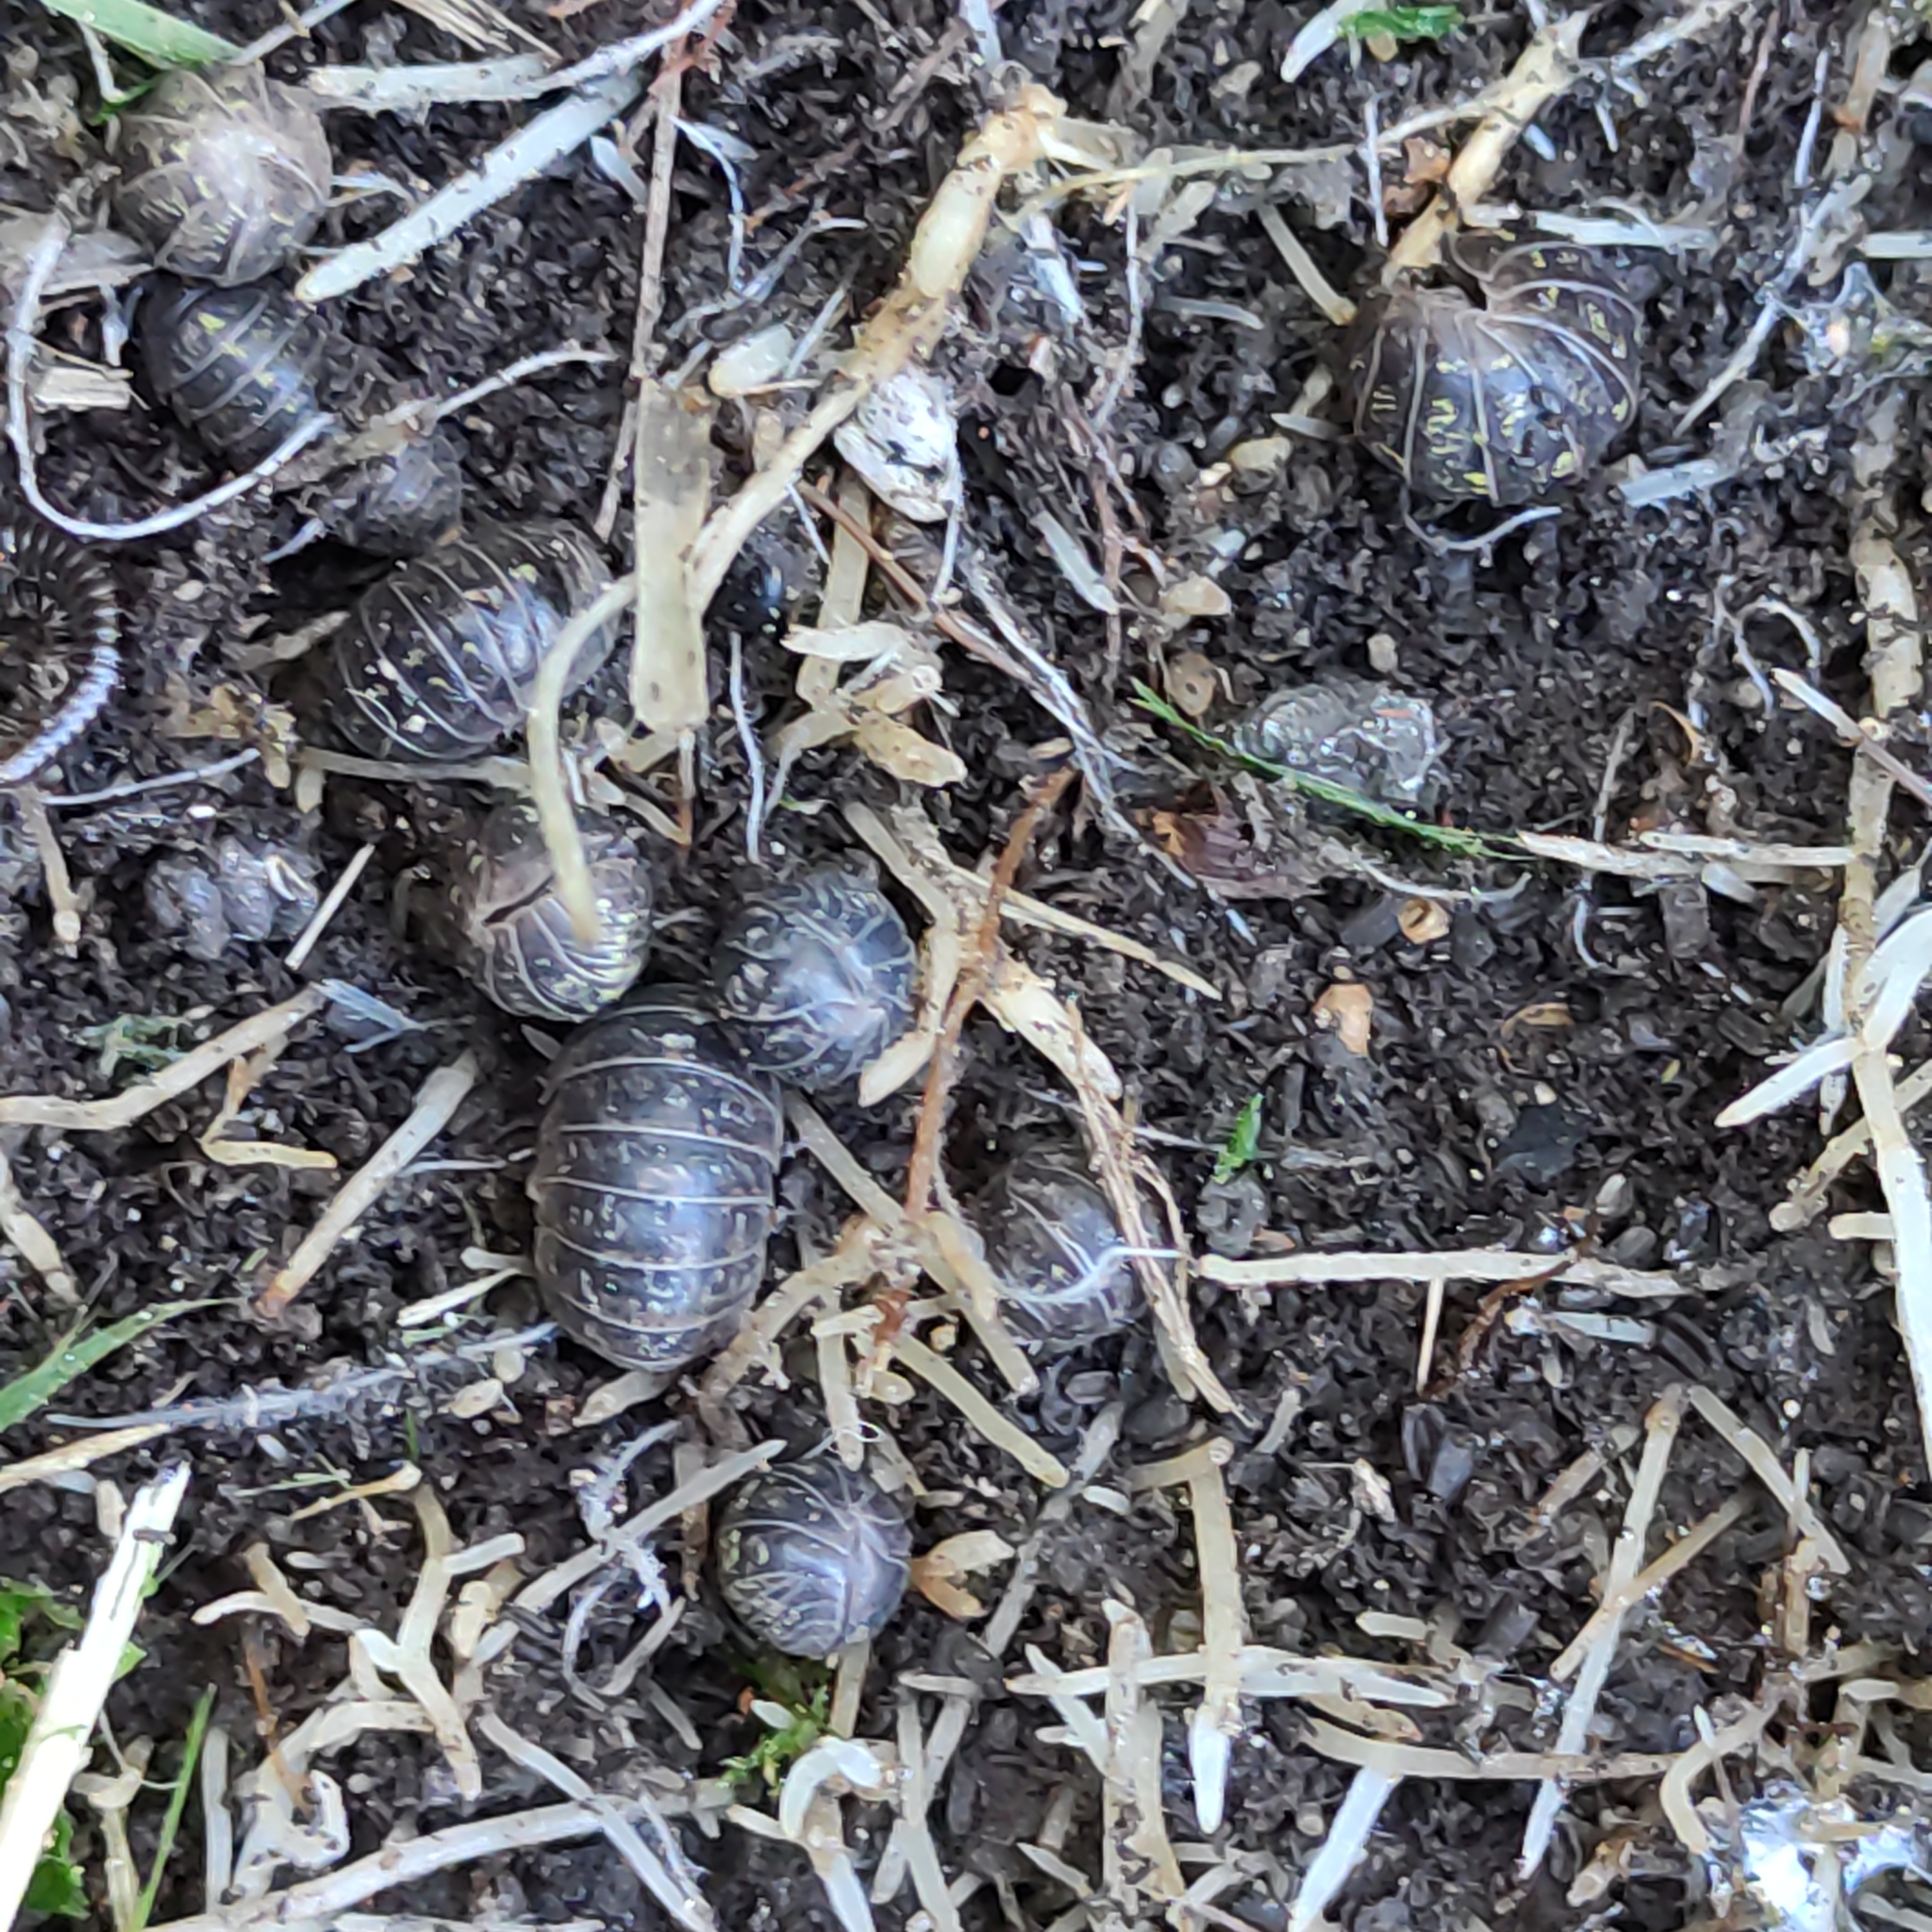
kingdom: Animalia
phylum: Arthropoda
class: Malacostraca
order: Isopoda
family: Armadillidiidae
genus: Armadillidium
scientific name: Armadillidium vulgare
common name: Common pill woodlouse
